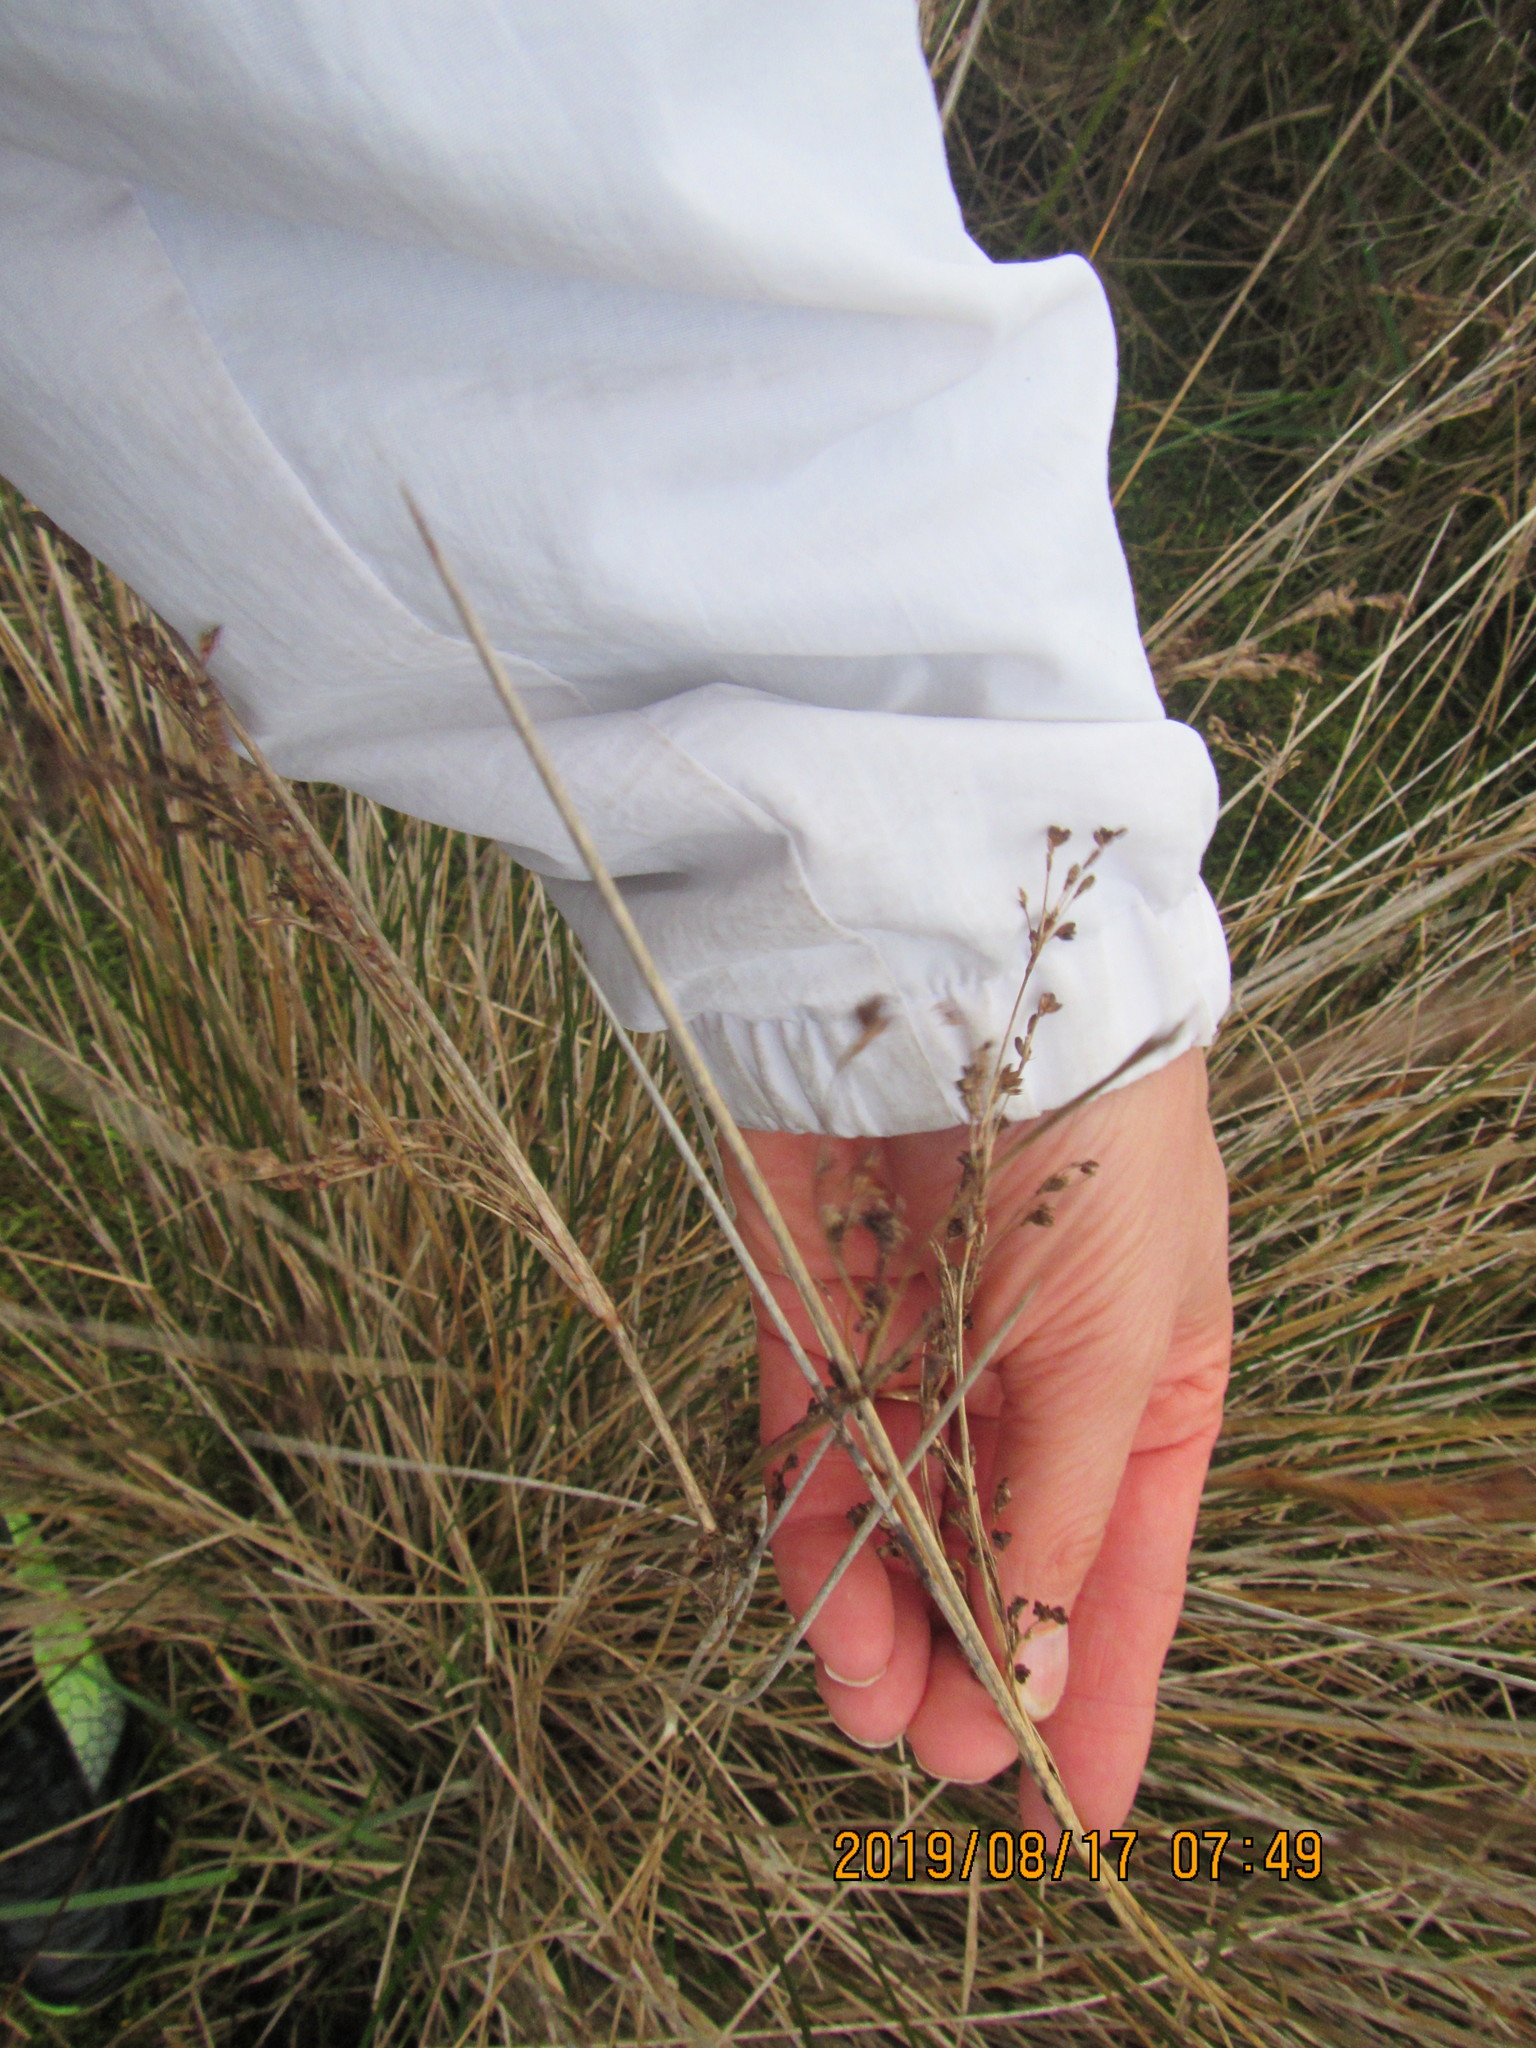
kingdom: Plantae
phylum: Tracheophyta
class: Liliopsida
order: Poales
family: Juncaceae
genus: Juncus
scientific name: Juncus kraussii
